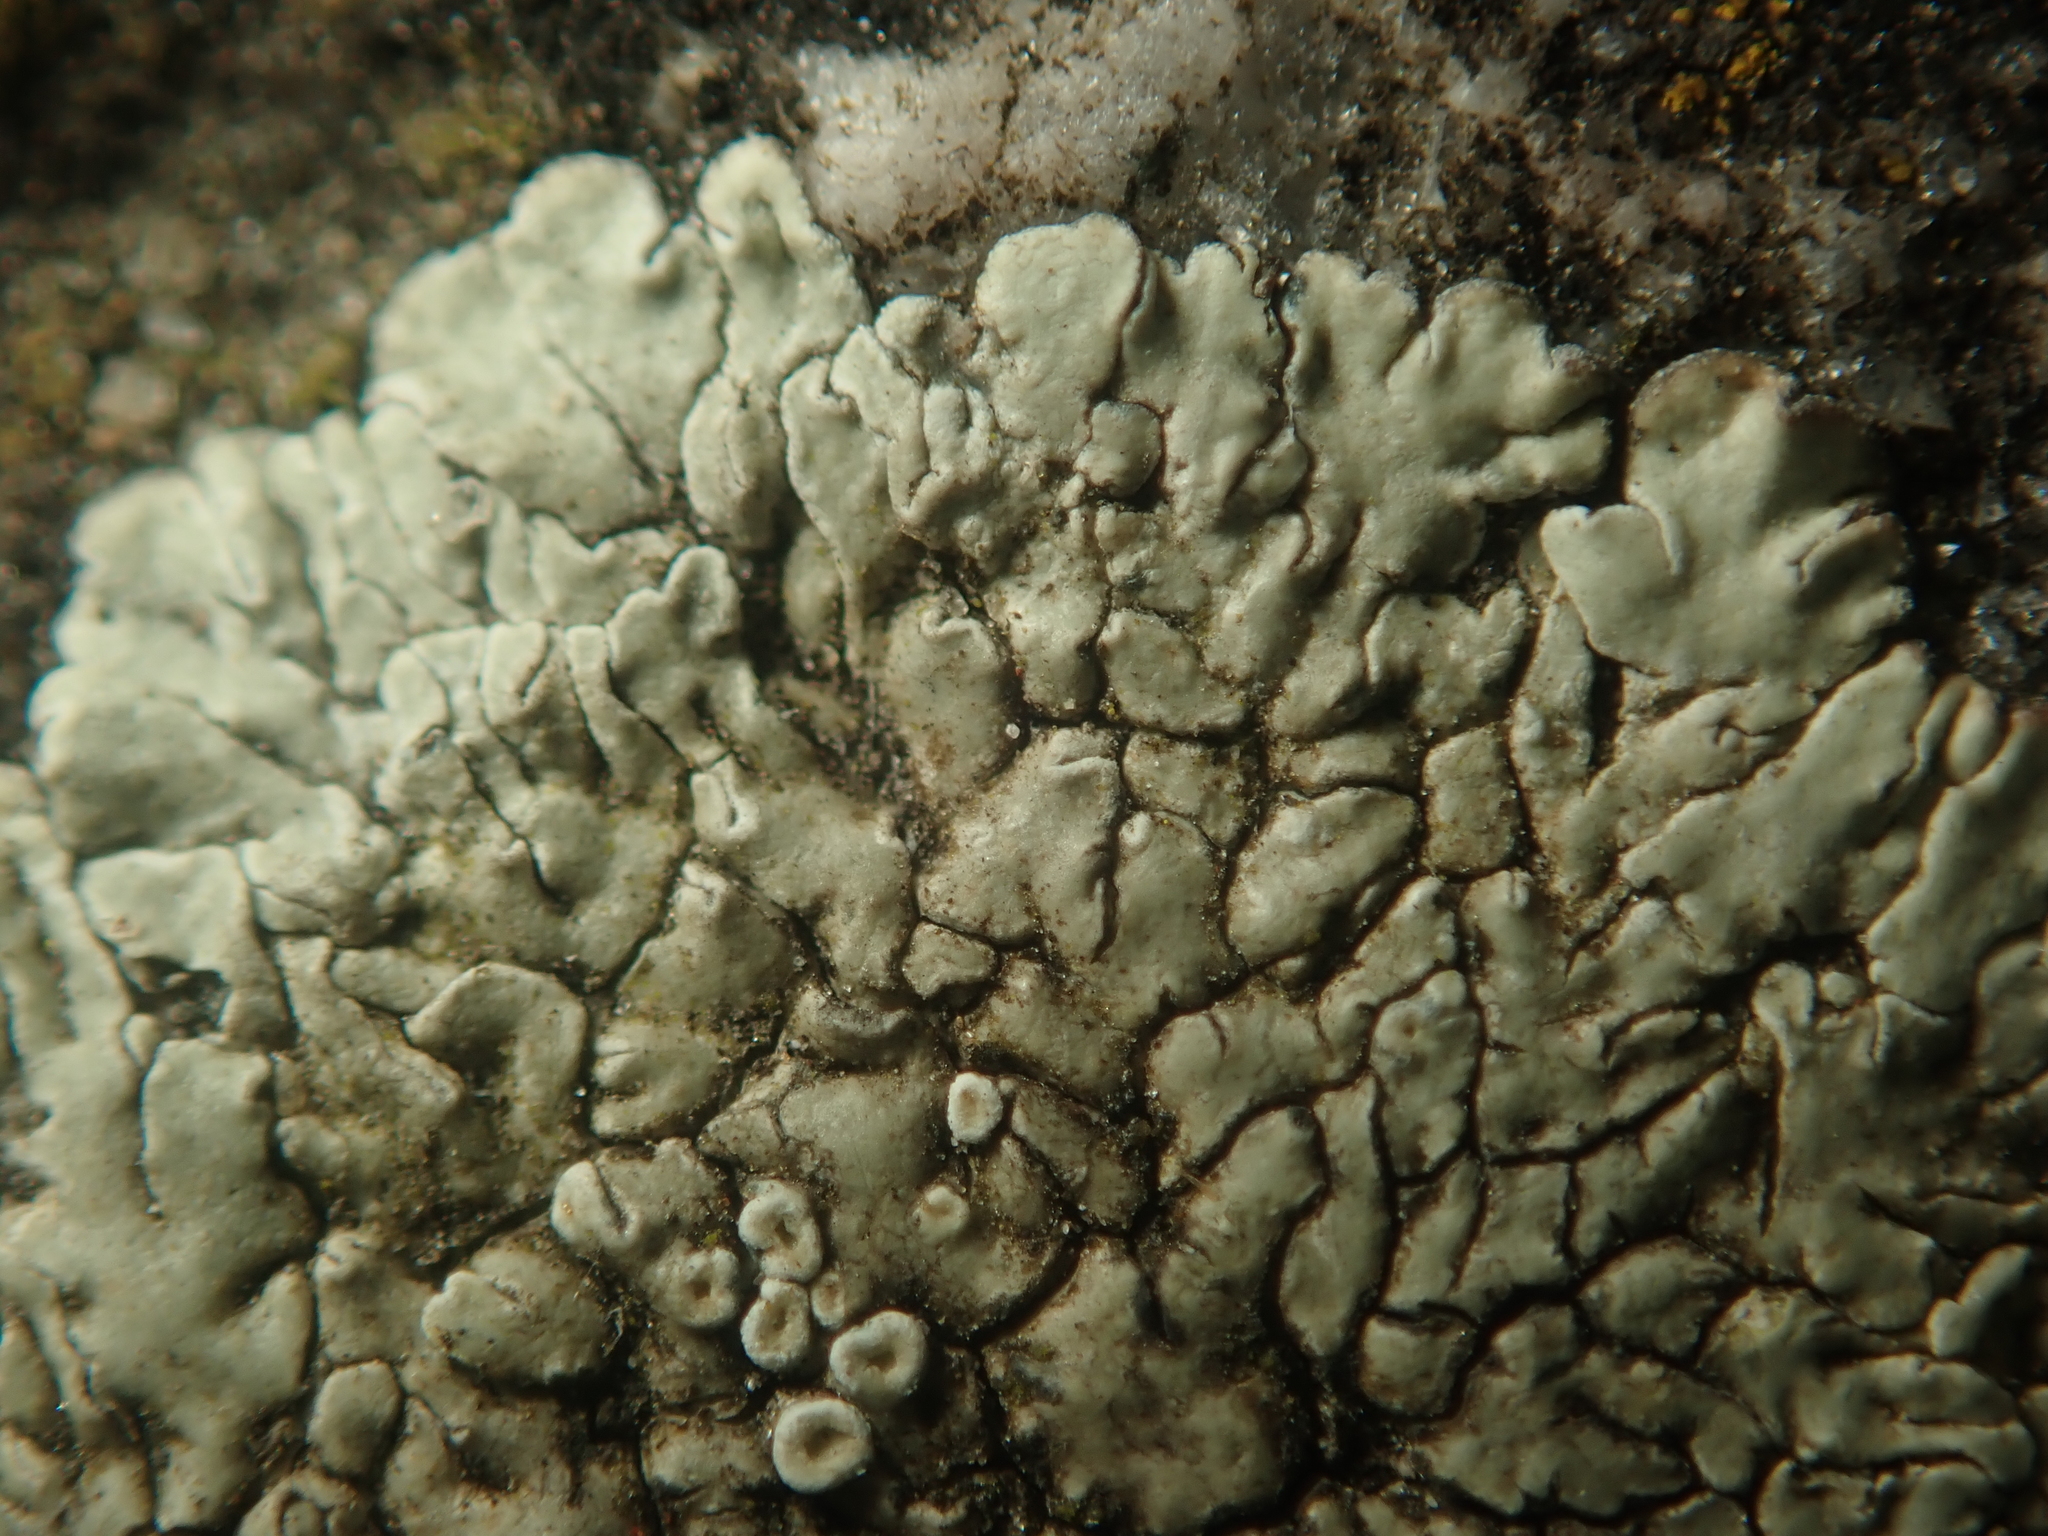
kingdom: Fungi
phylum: Ascomycota
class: Lecanoromycetes
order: Lecanorales
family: Lecanoraceae
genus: Protoparmeliopsis
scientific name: Protoparmeliopsis muralis
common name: Stonewall rim lichen
